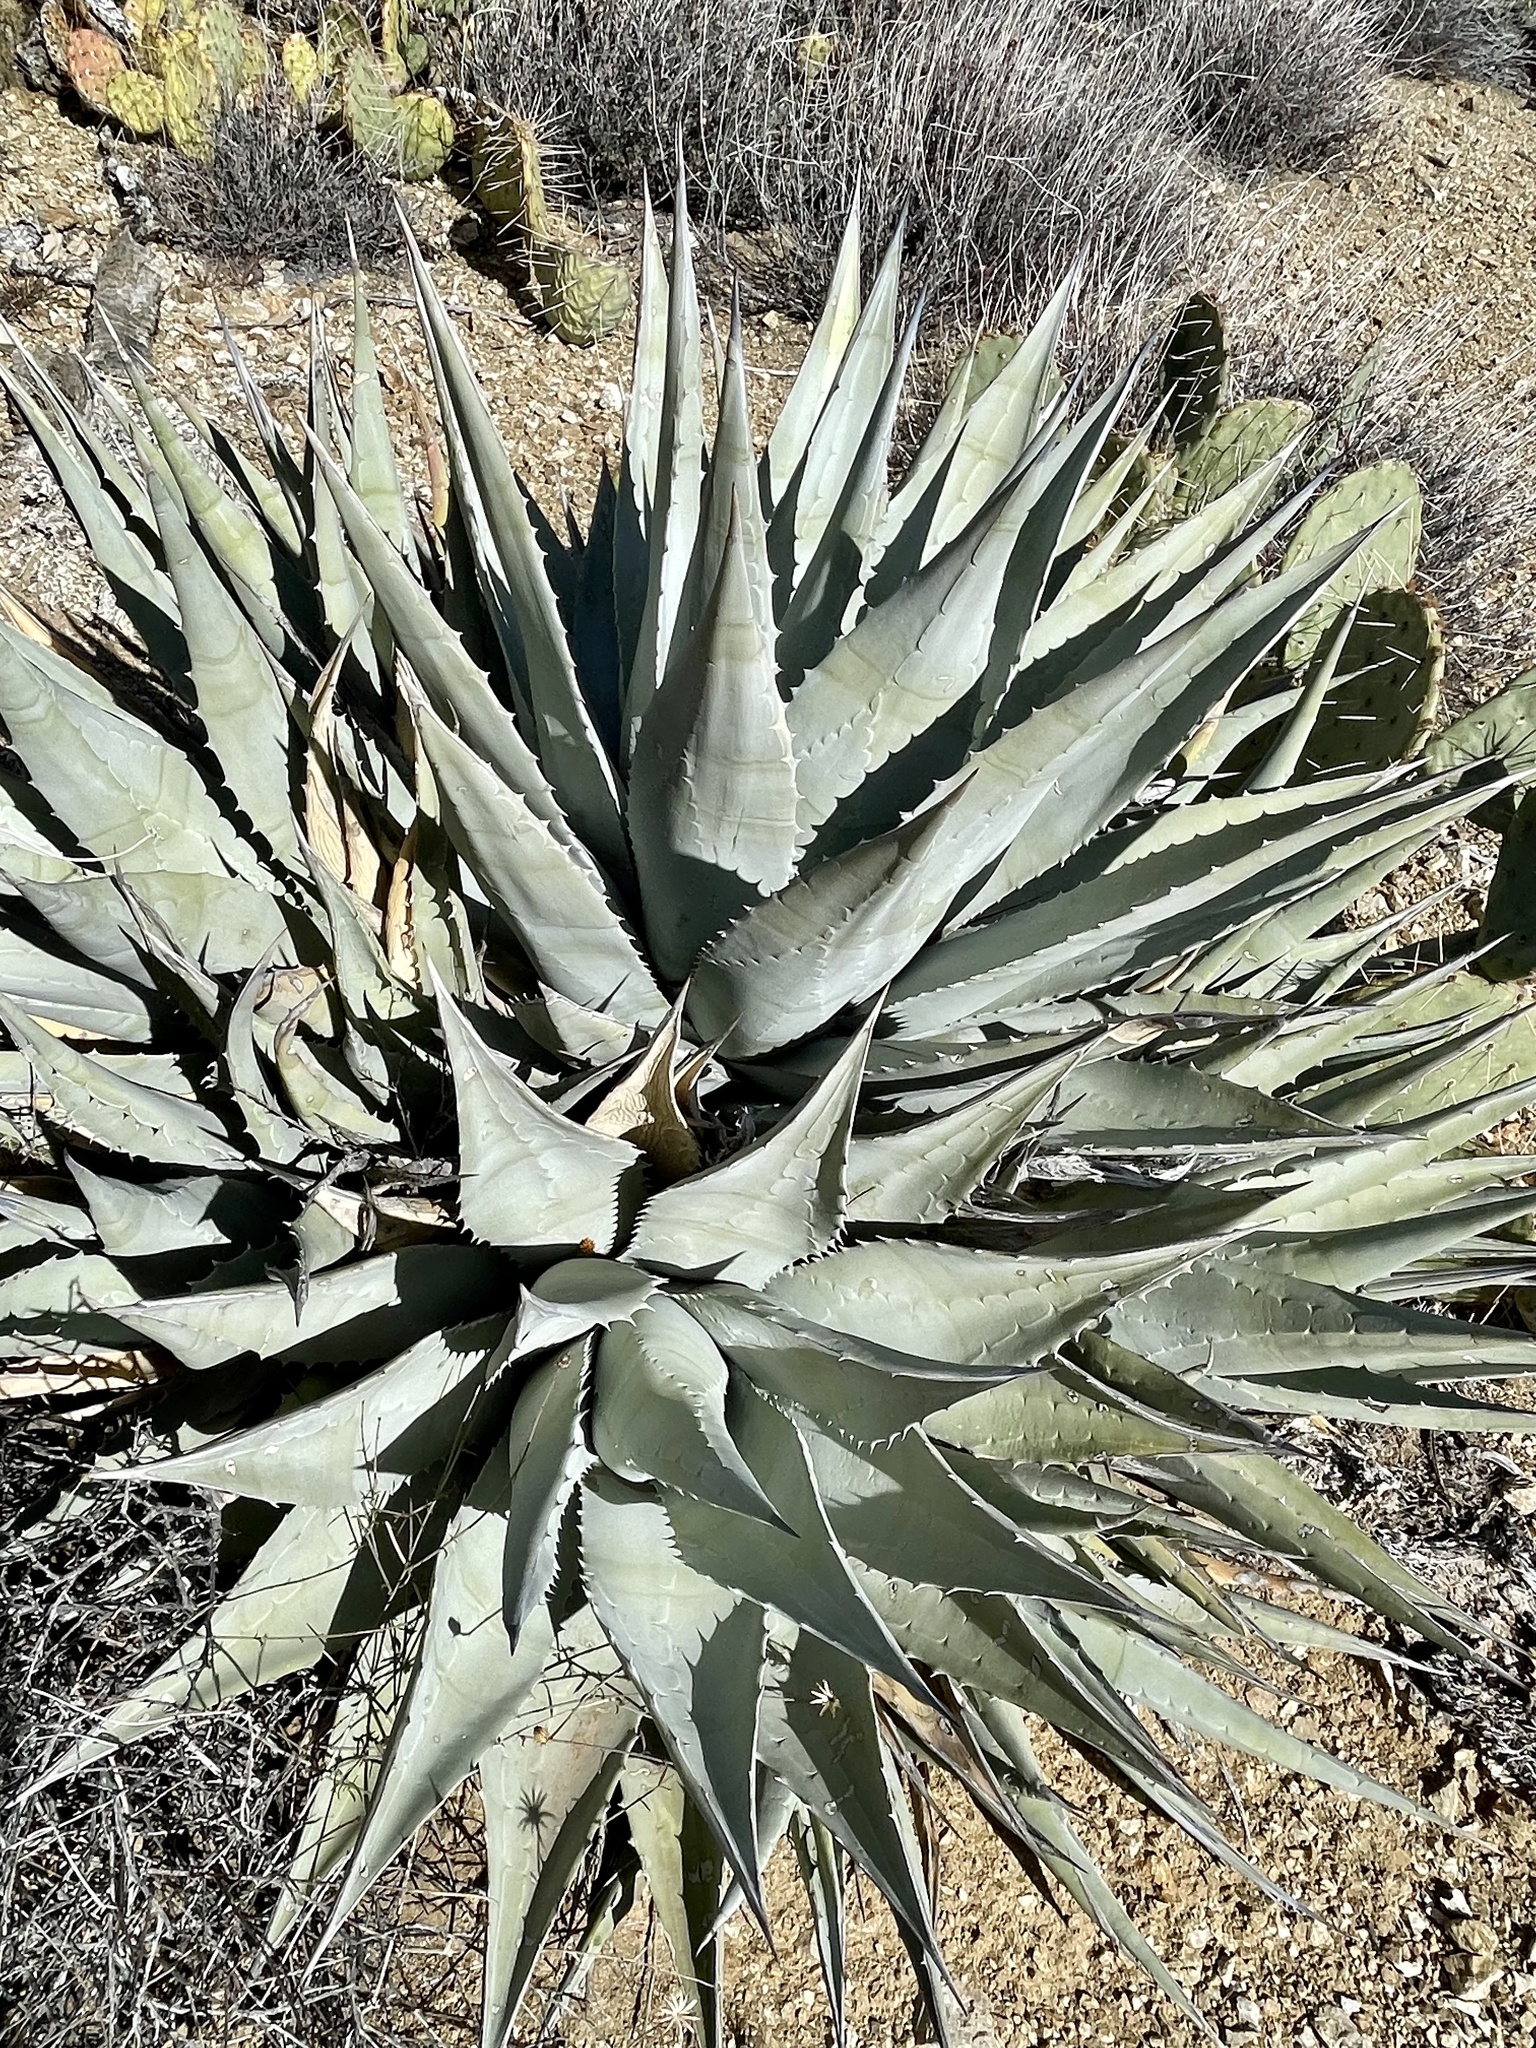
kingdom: Plantae
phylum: Tracheophyta
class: Liliopsida
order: Asparagales
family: Asparagaceae
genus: Agave
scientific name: Agave deserti
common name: Desert agave
